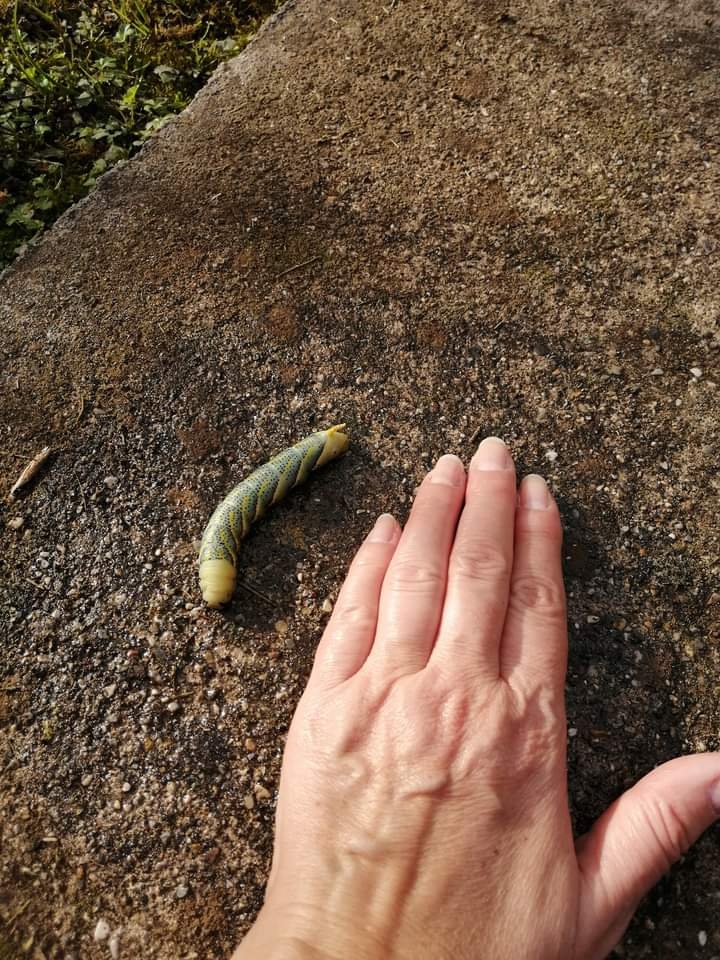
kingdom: Animalia
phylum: Arthropoda
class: Insecta
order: Lepidoptera
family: Sphingidae
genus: Acherontia
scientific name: Acherontia atropos
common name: Death's-head hawk moth
